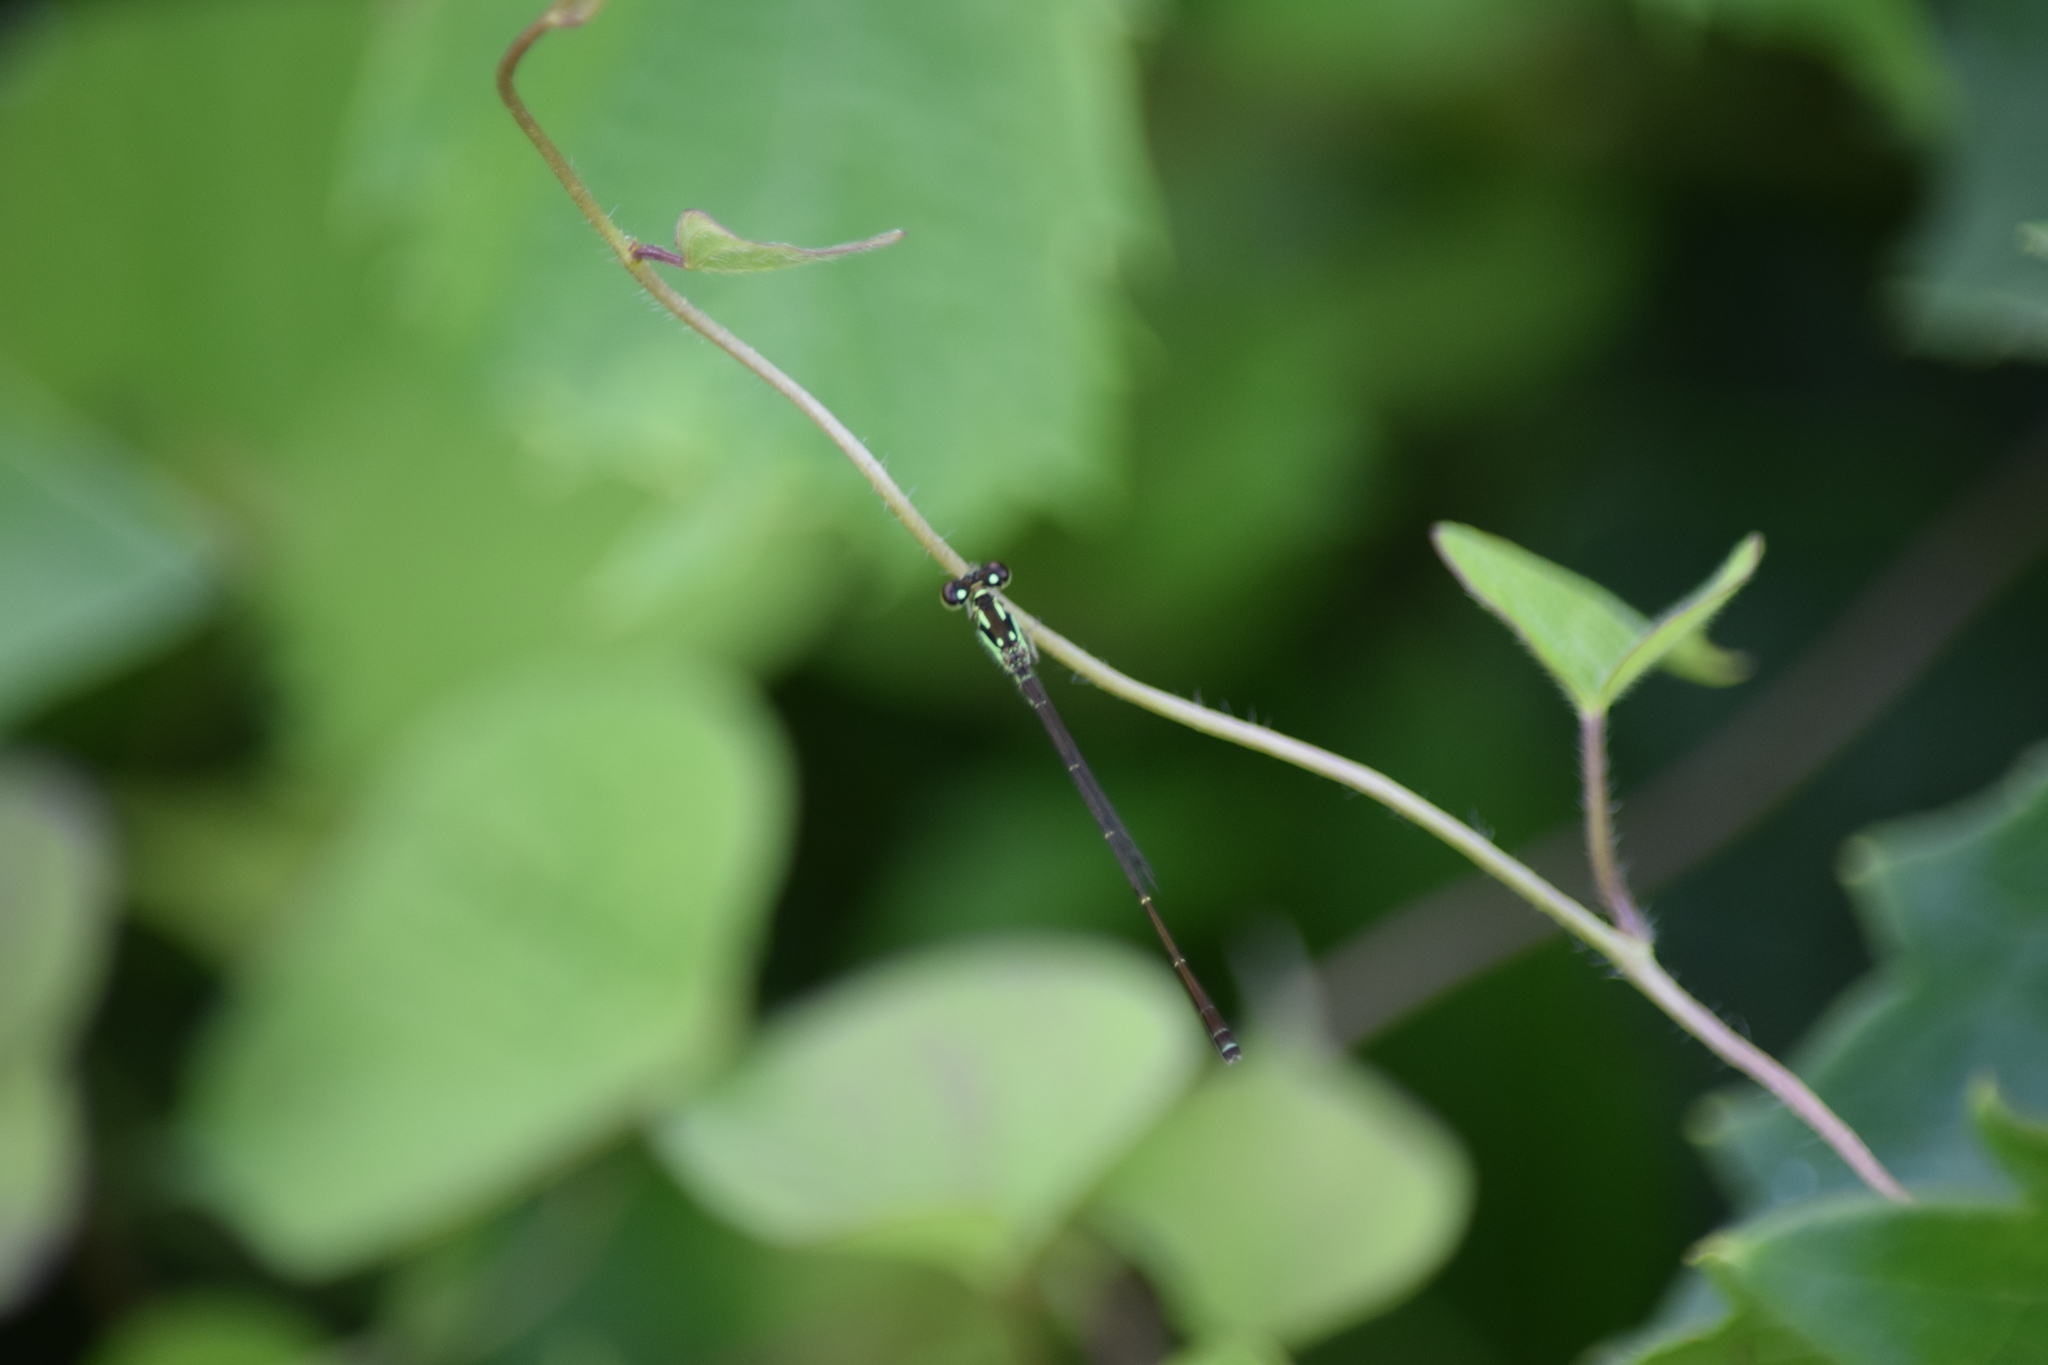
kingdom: Animalia
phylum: Arthropoda
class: Insecta
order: Odonata
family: Coenagrionidae
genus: Ischnura
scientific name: Ischnura posita
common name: Fragile forktail
